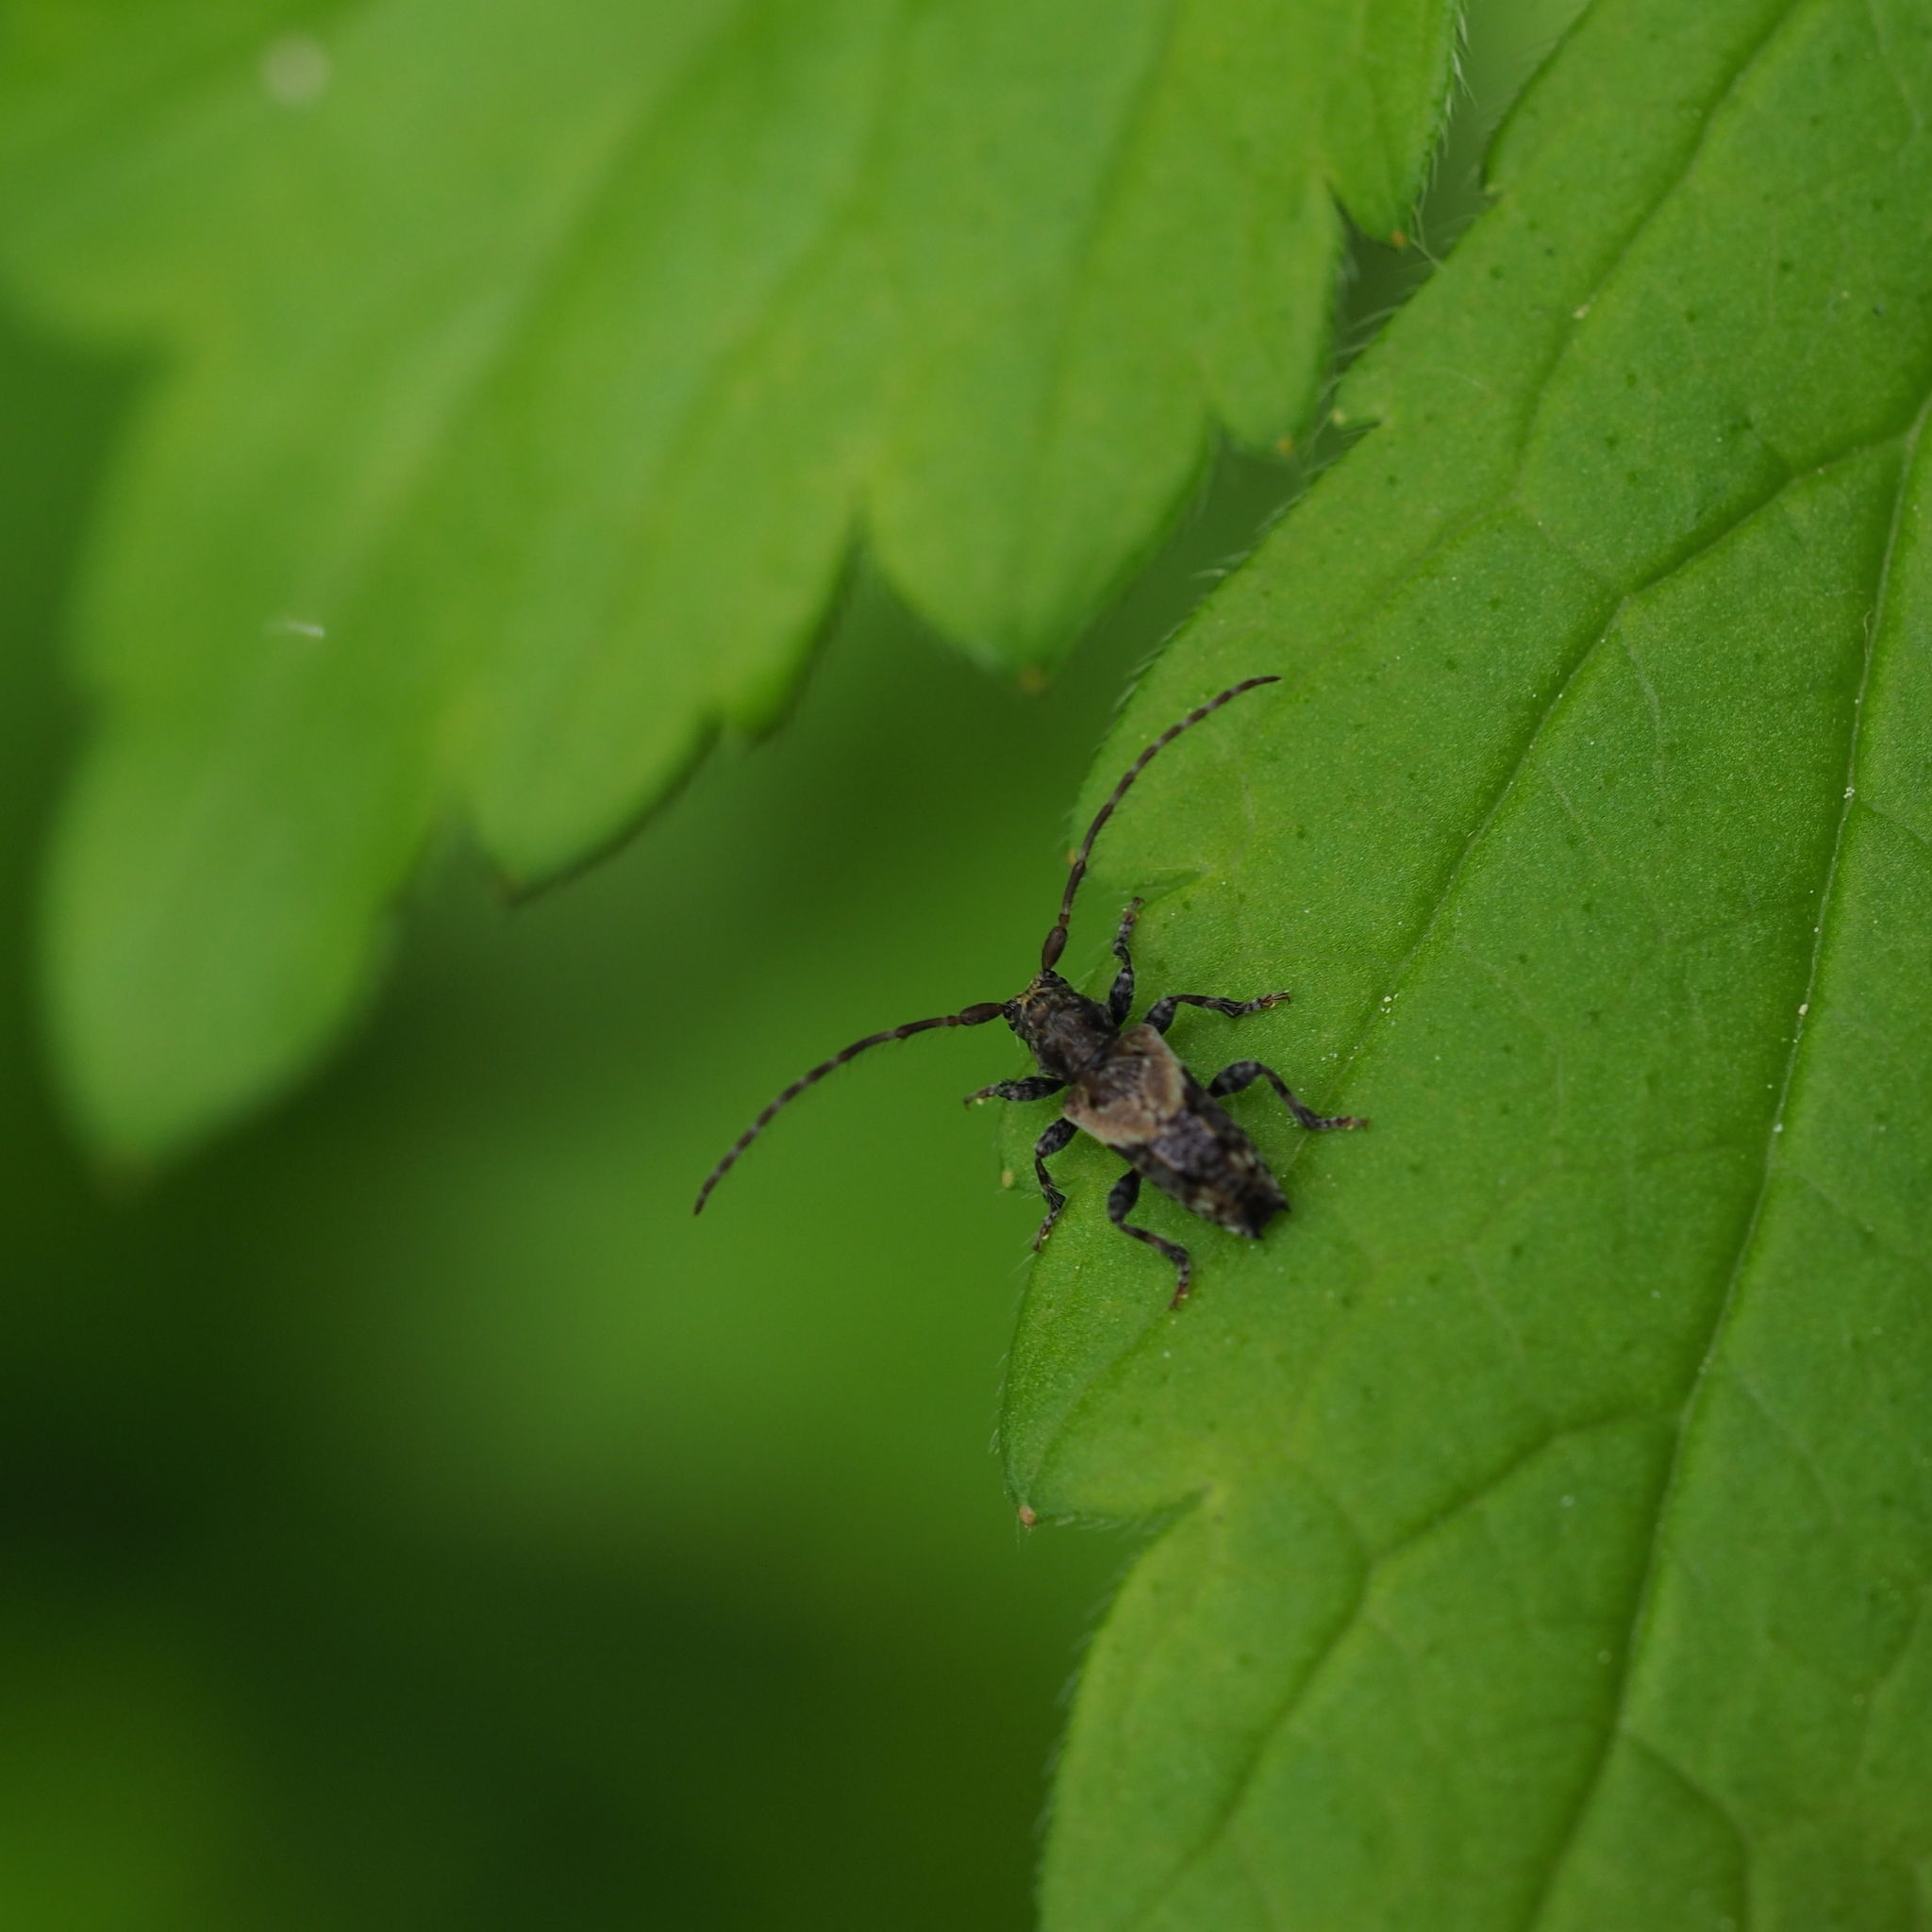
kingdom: Animalia
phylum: Arthropoda
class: Insecta
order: Coleoptera
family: Cerambycidae
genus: Pogonocherus
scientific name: Pogonocherus hispidus
